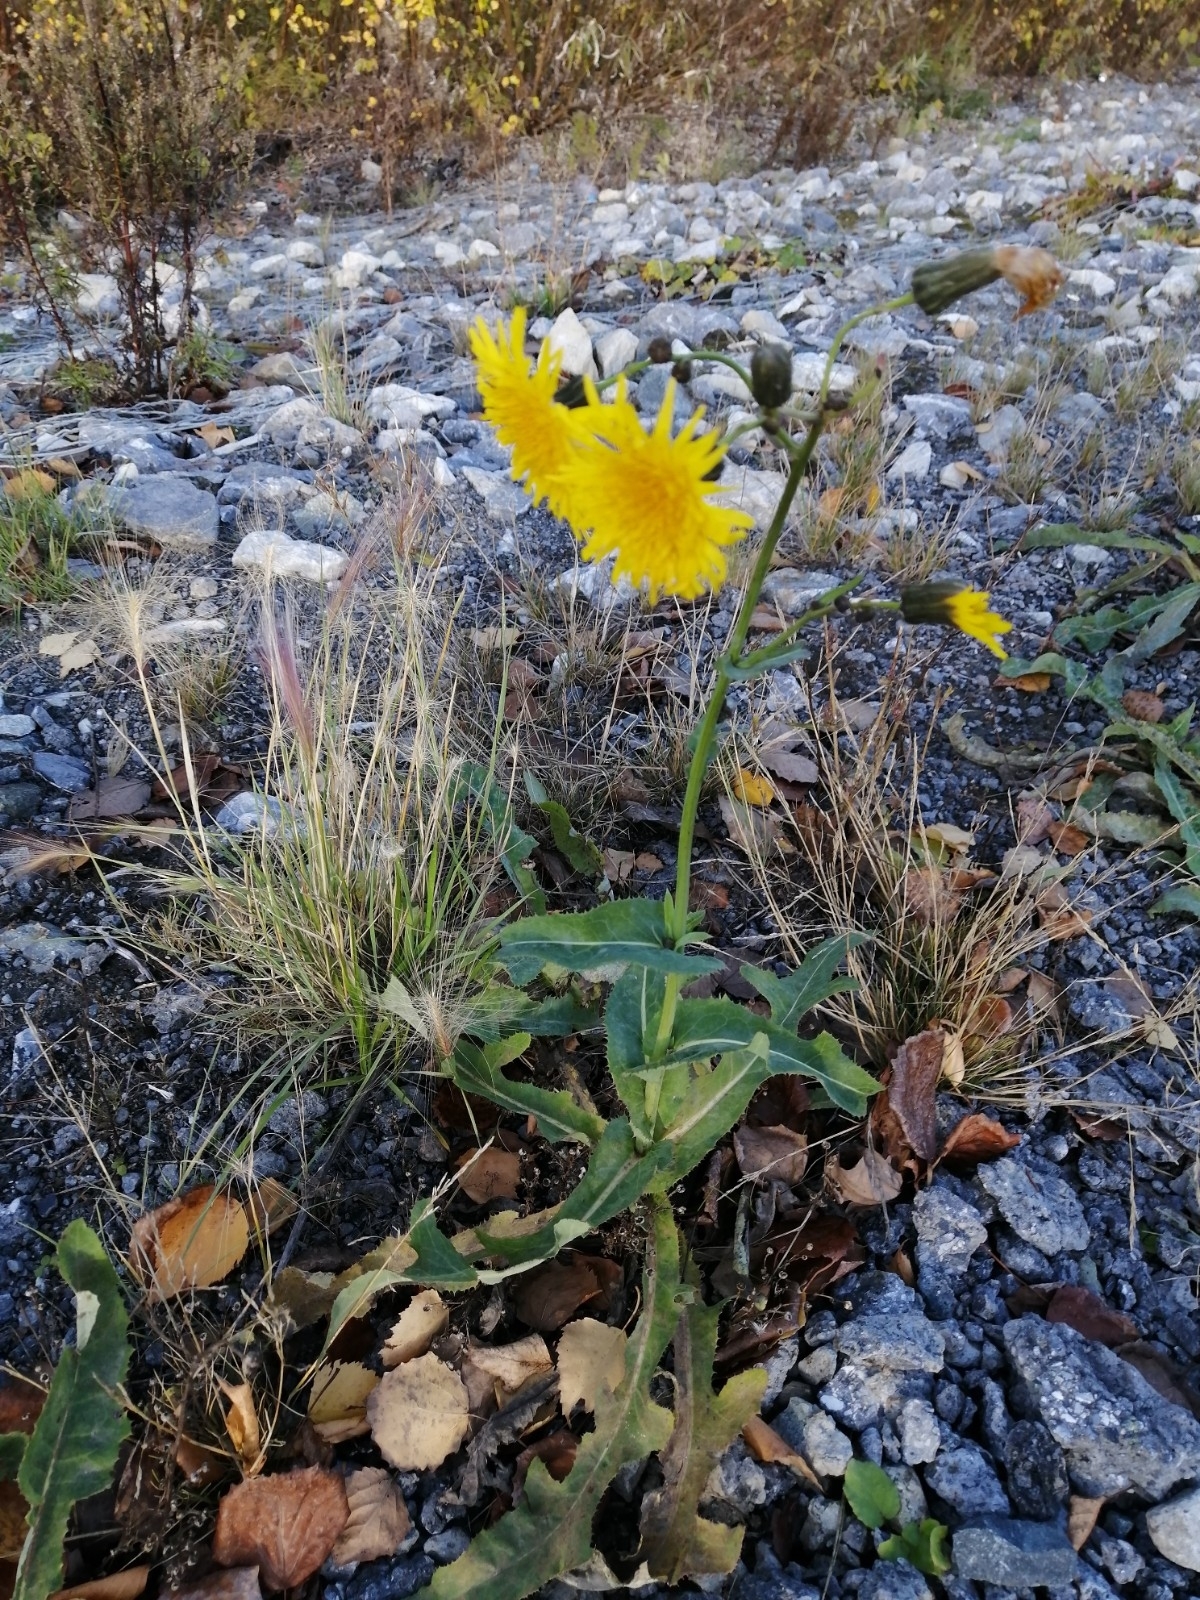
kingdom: Plantae
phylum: Tracheophyta
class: Magnoliopsida
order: Asterales
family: Asteraceae
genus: Sonchus
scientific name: Sonchus arvensis
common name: Perennial sow-thistle
